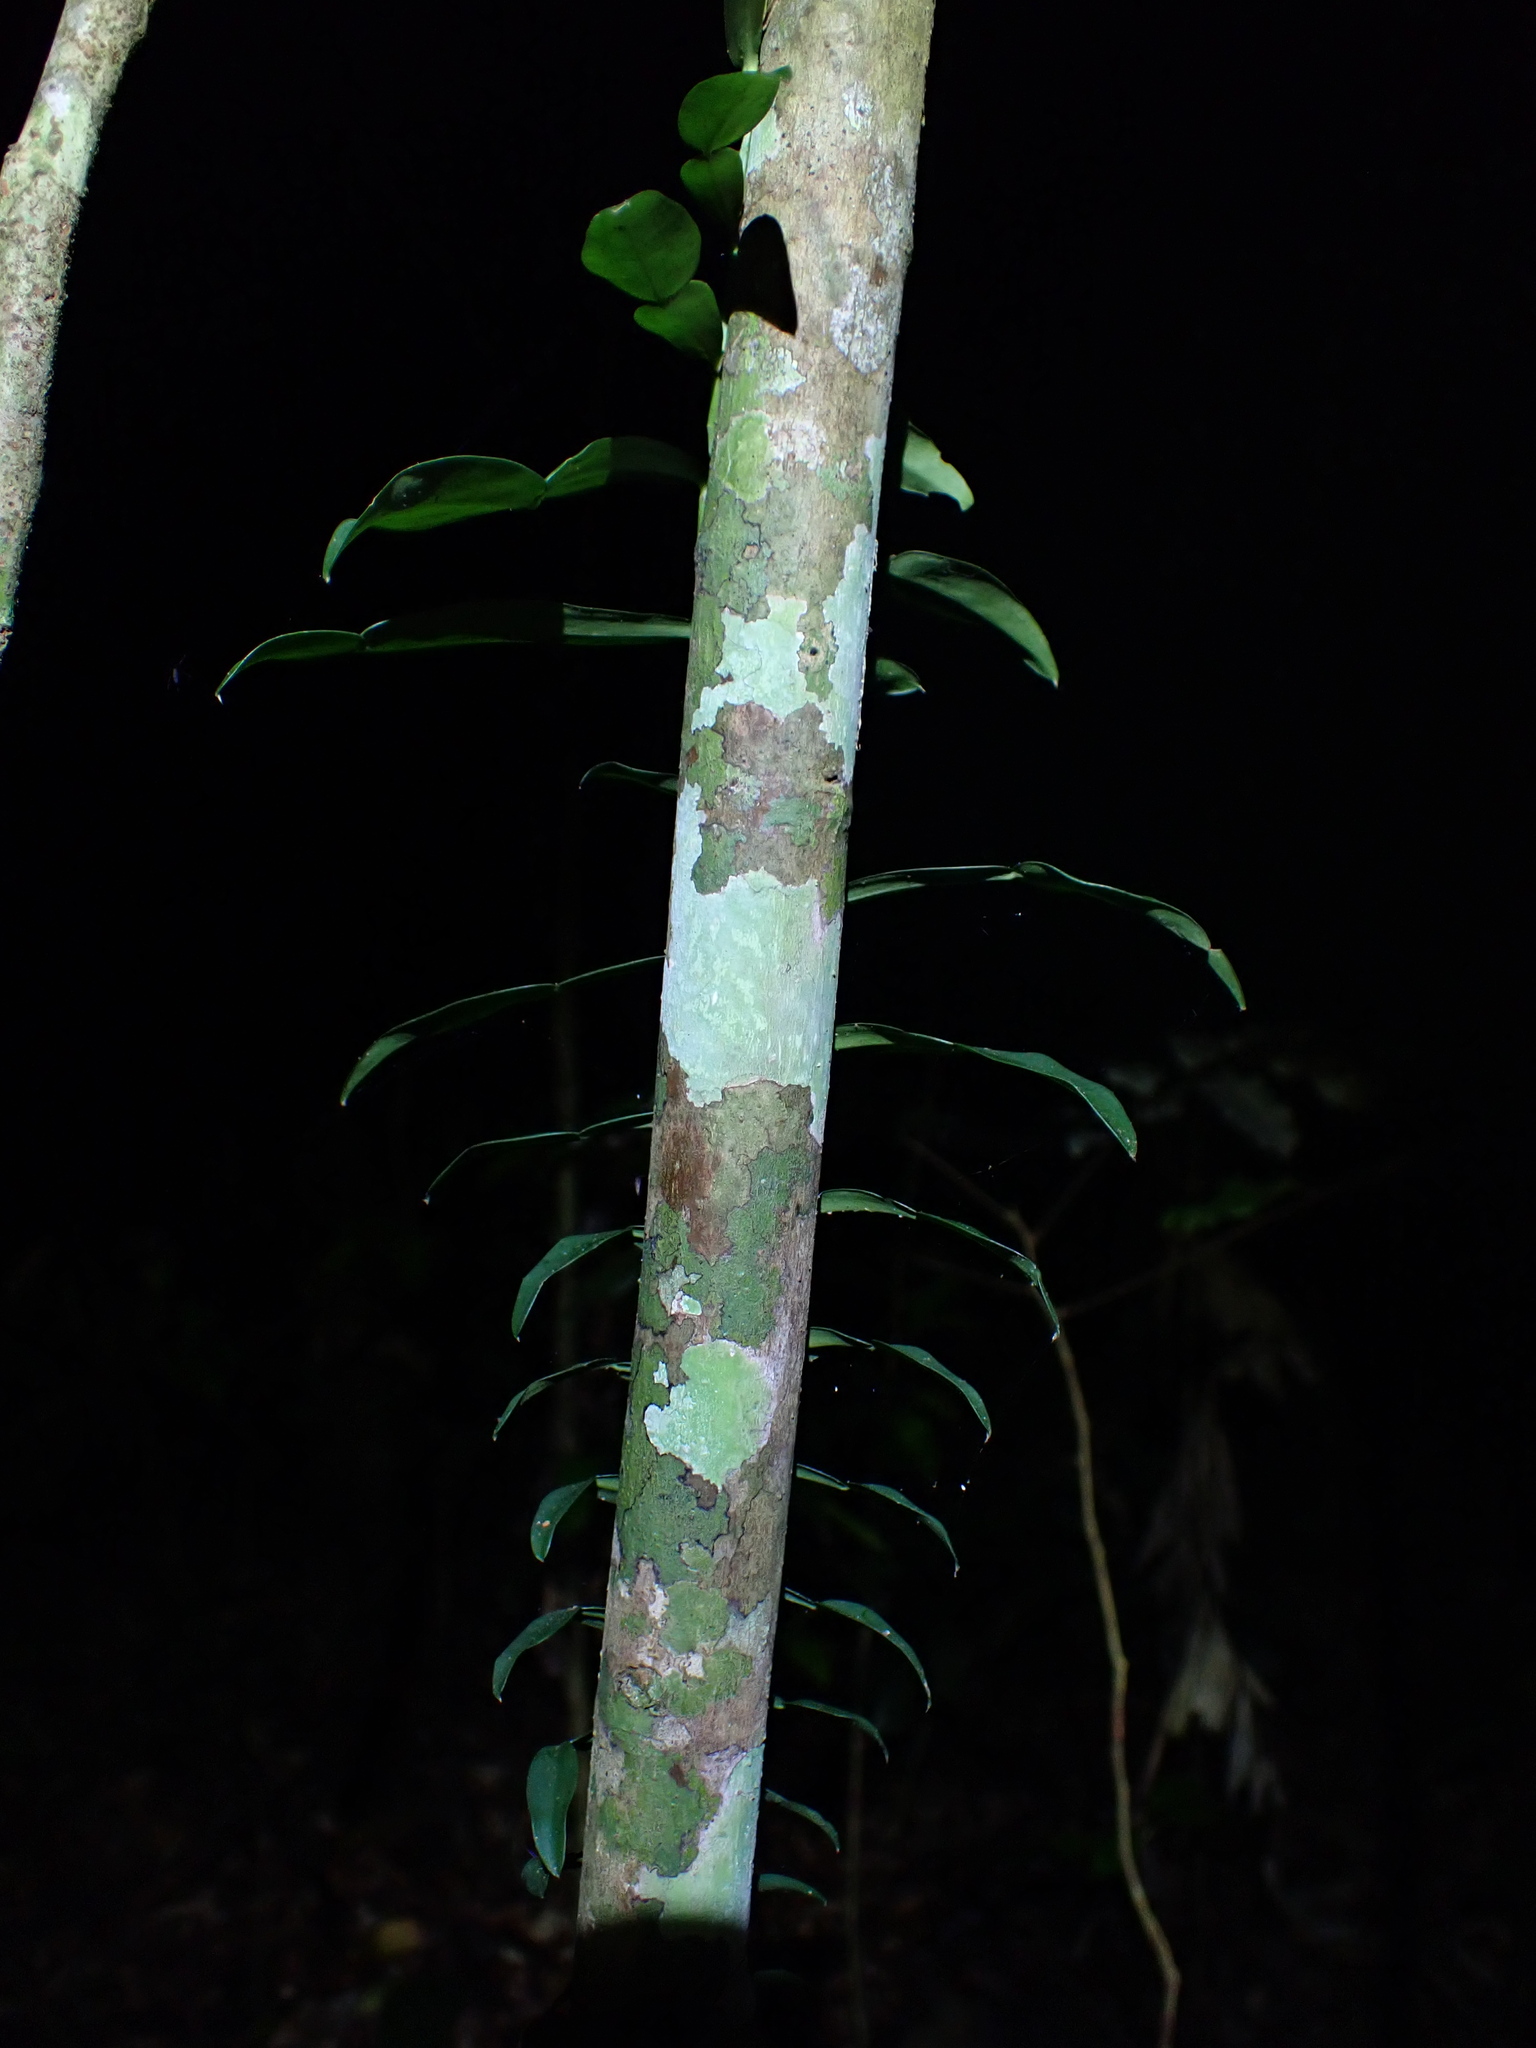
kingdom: Plantae
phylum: Tracheophyta
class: Liliopsida
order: Alismatales
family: Araceae
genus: Pothos
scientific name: Pothos longipes
